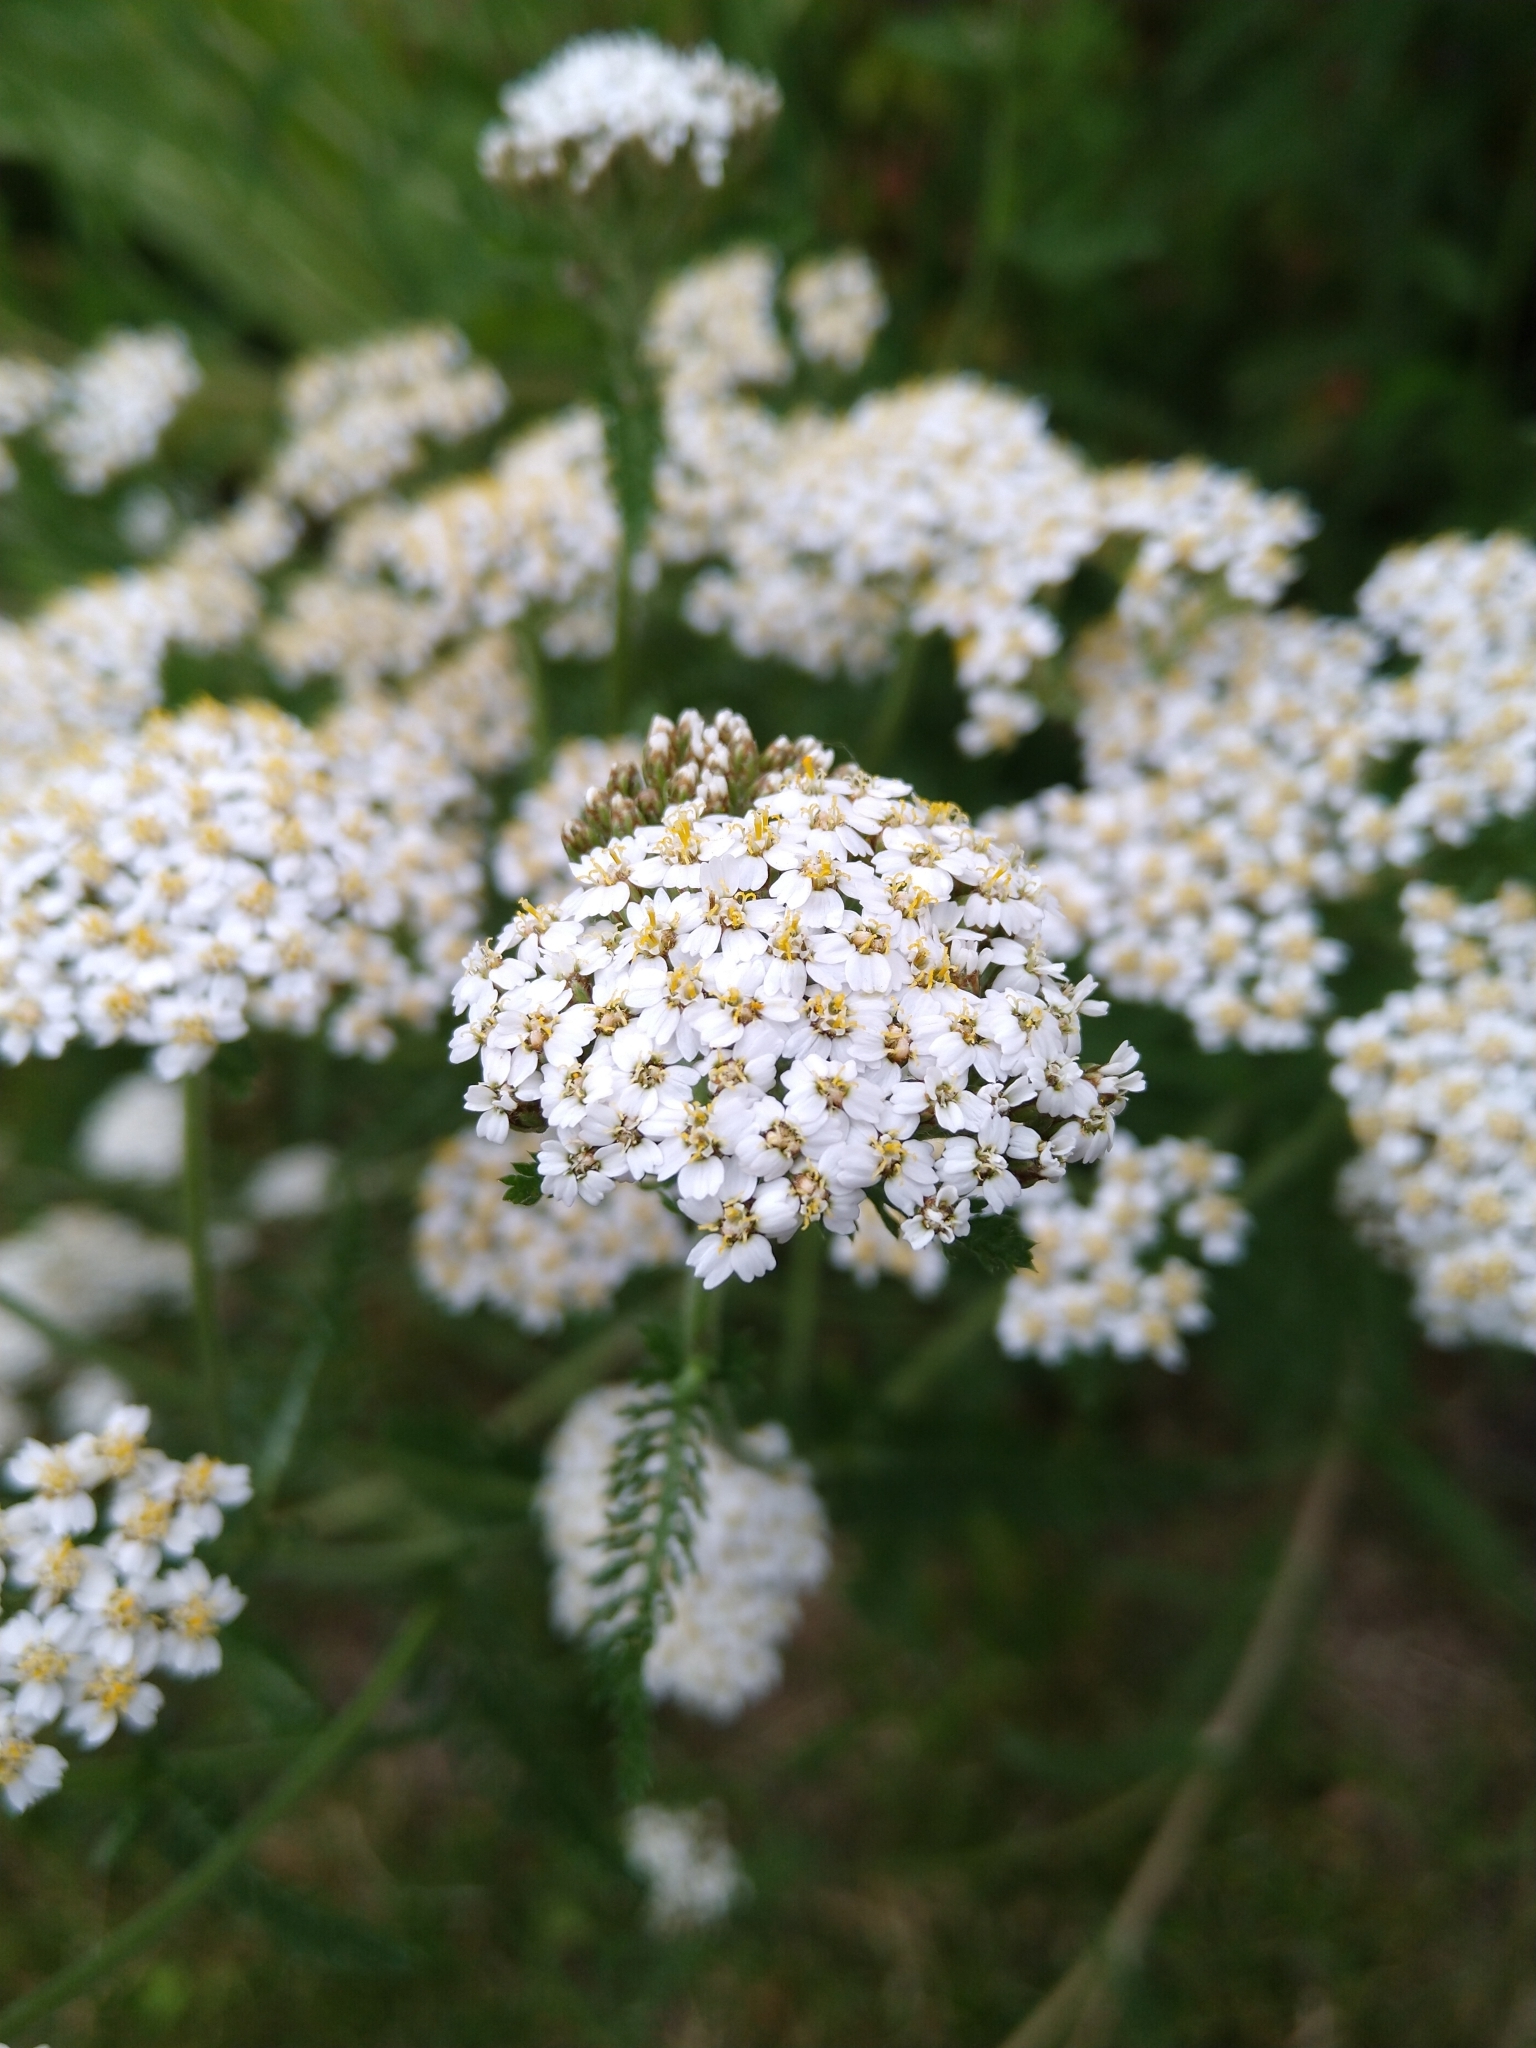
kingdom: Plantae
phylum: Tracheophyta
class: Magnoliopsida
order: Asterales
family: Asteraceae
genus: Achillea
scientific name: Achillea millefolium
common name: Yarrow
